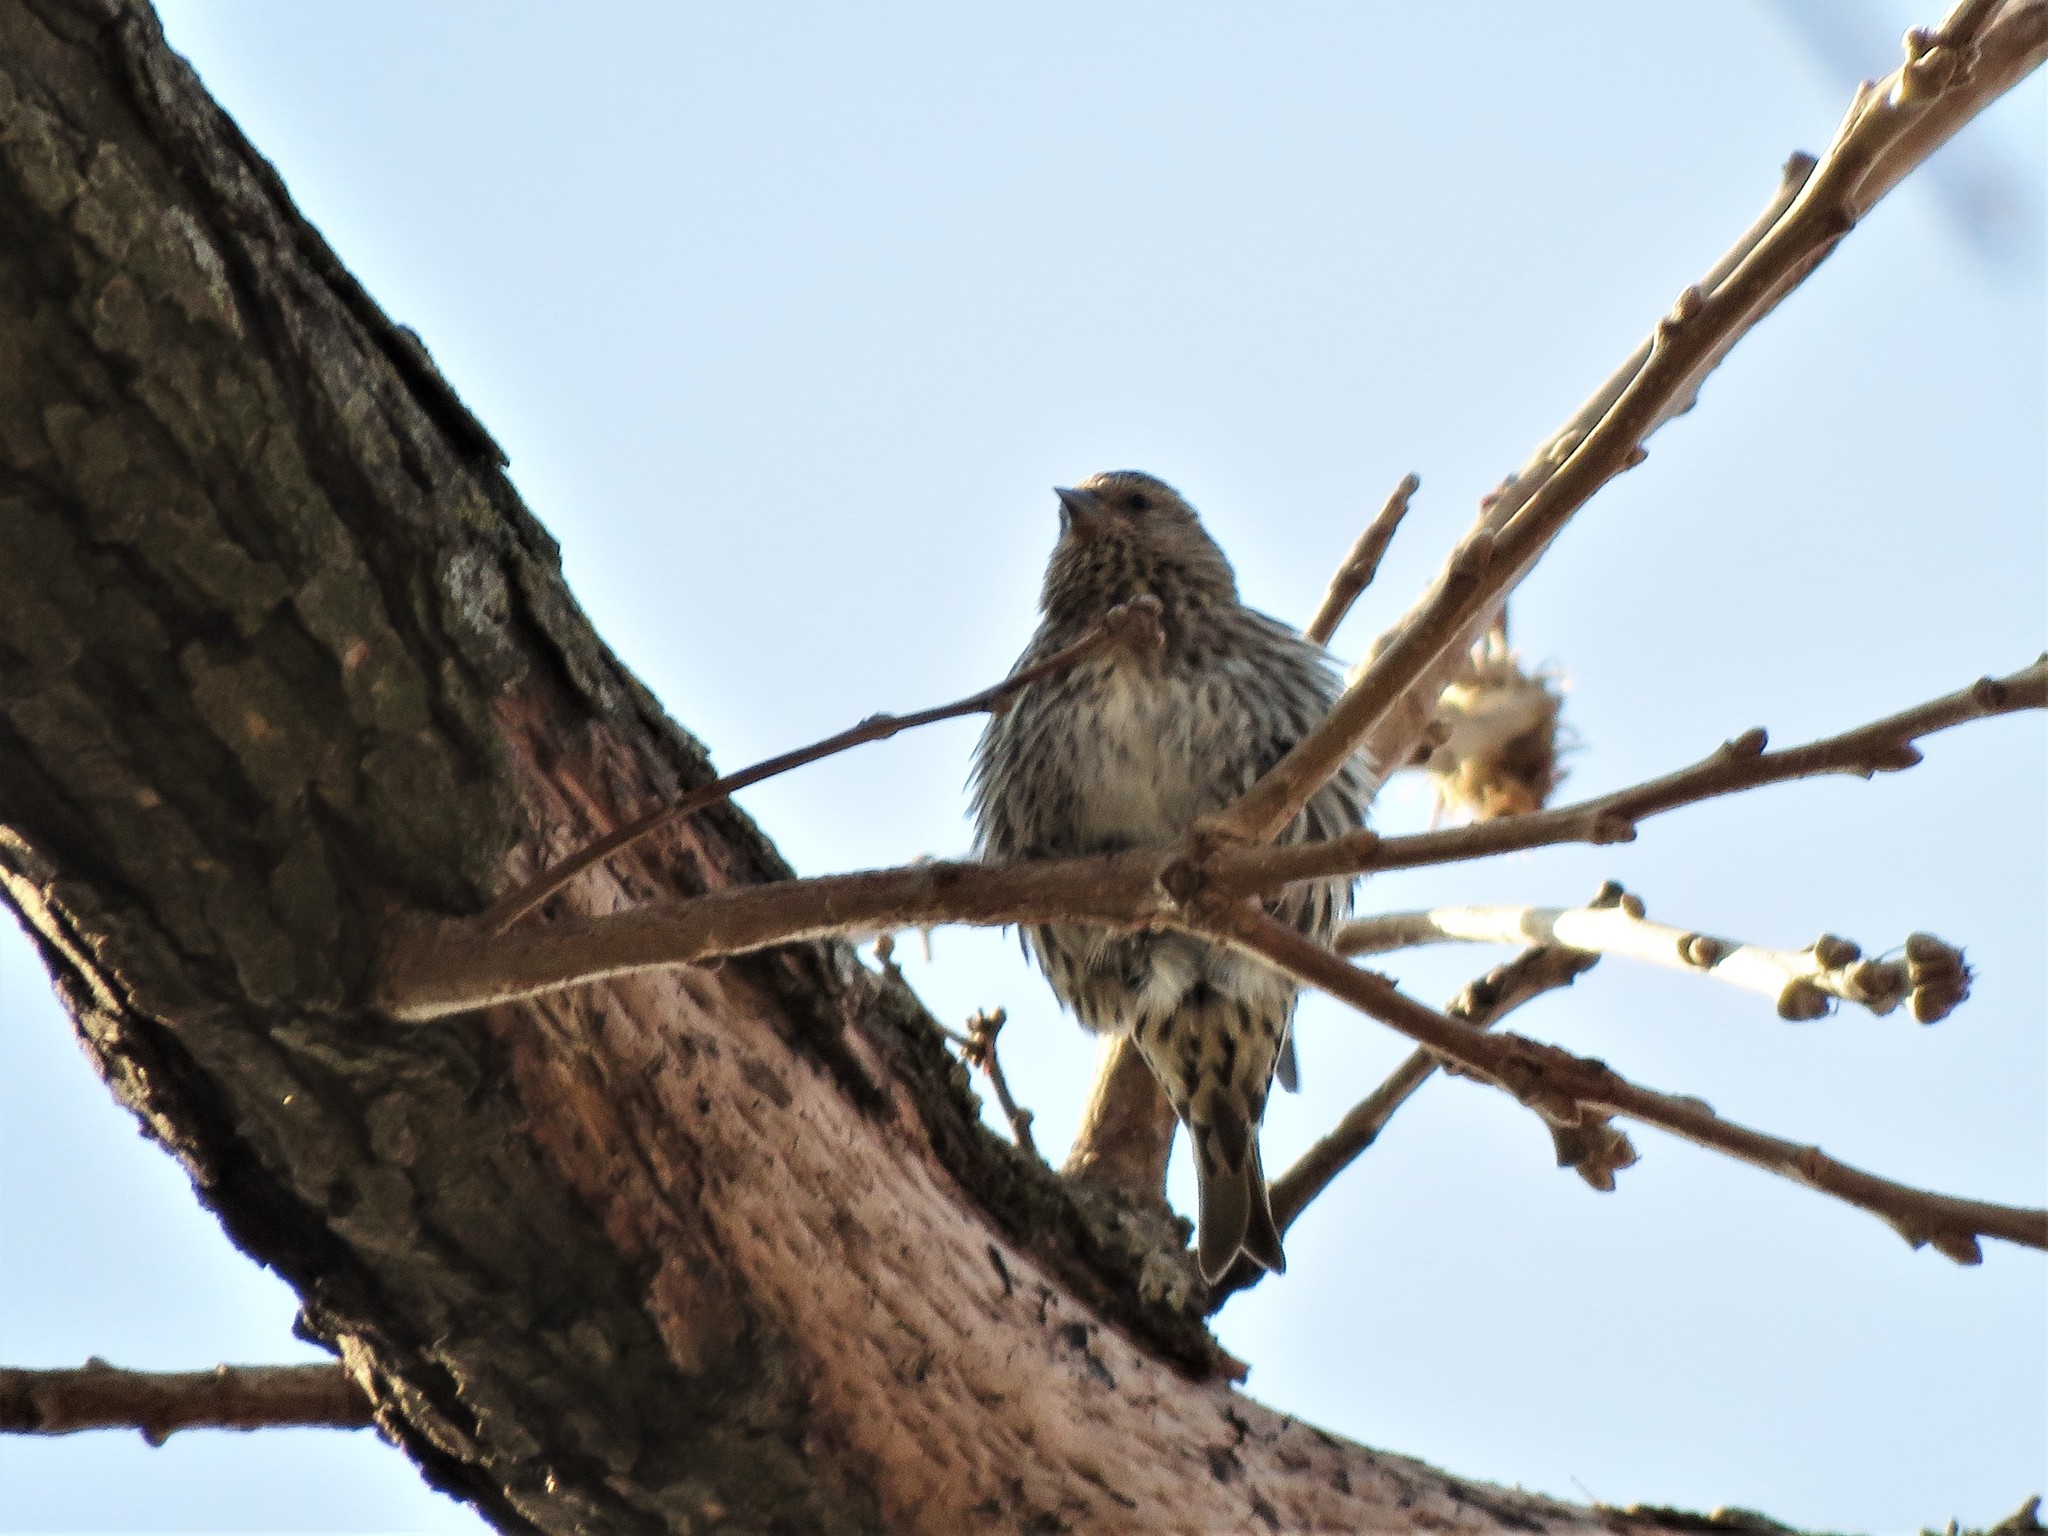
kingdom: Animalia
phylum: Chordata
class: Aves
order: Passeriformes
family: Fringillidae
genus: Spinus
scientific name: Spinus pinus
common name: Pine siskin
